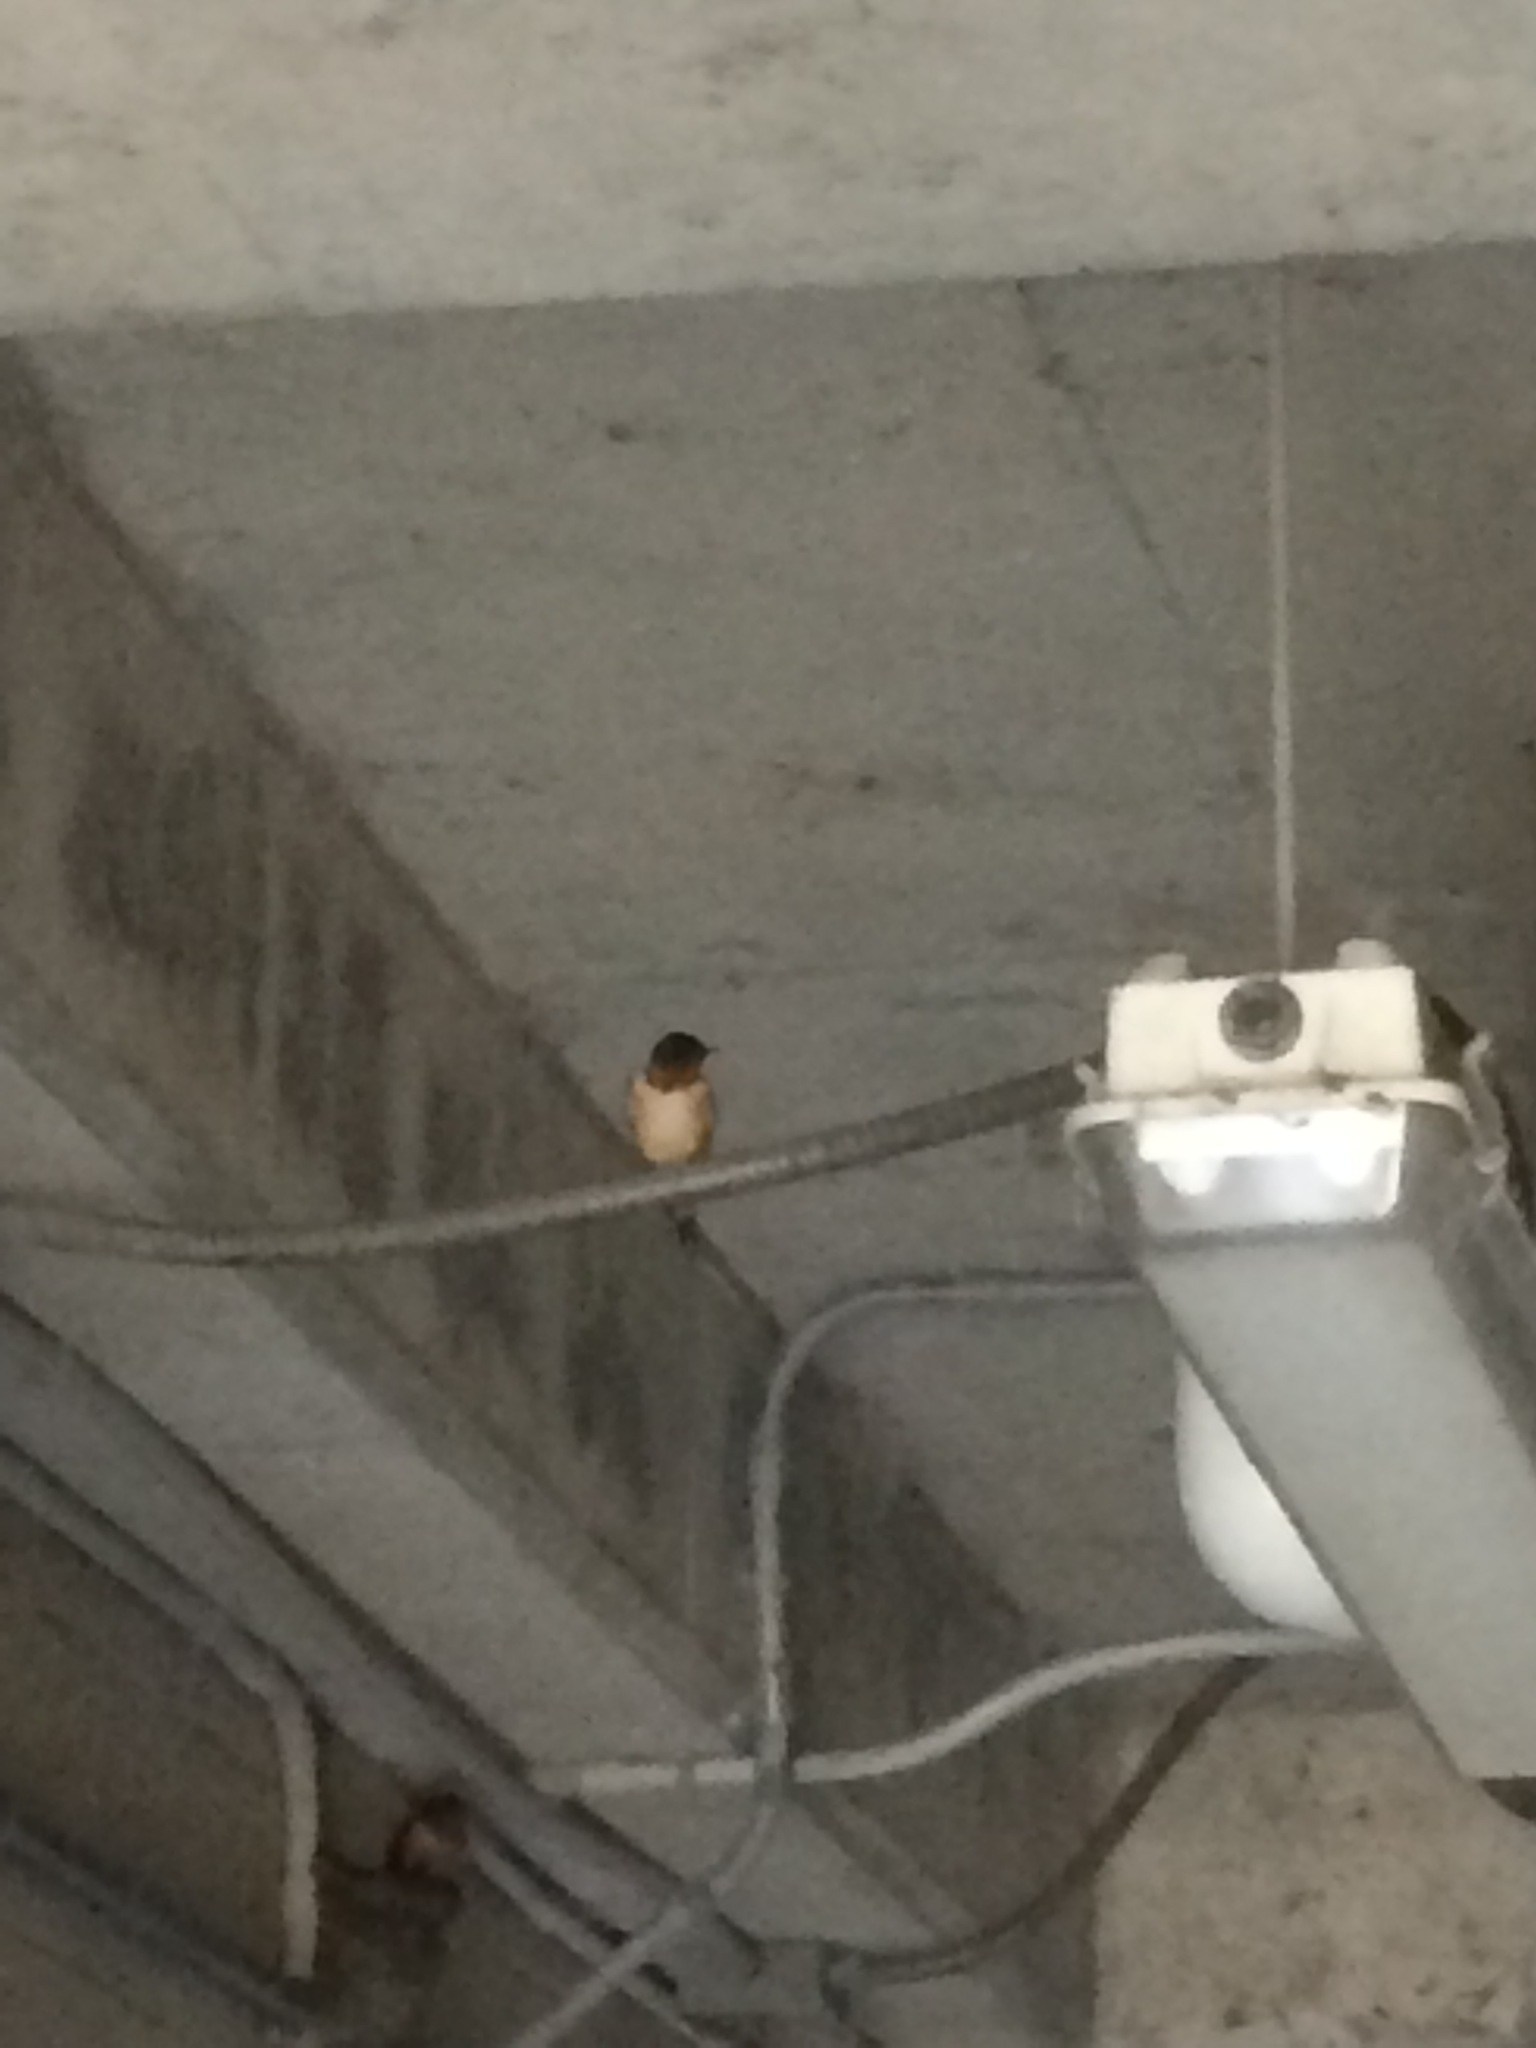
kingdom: Animalia
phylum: Chordata
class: Aves
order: Passeriformes
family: Hirundinidae
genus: Hirundo
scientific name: Hirundo rustica
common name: Barn swallow
